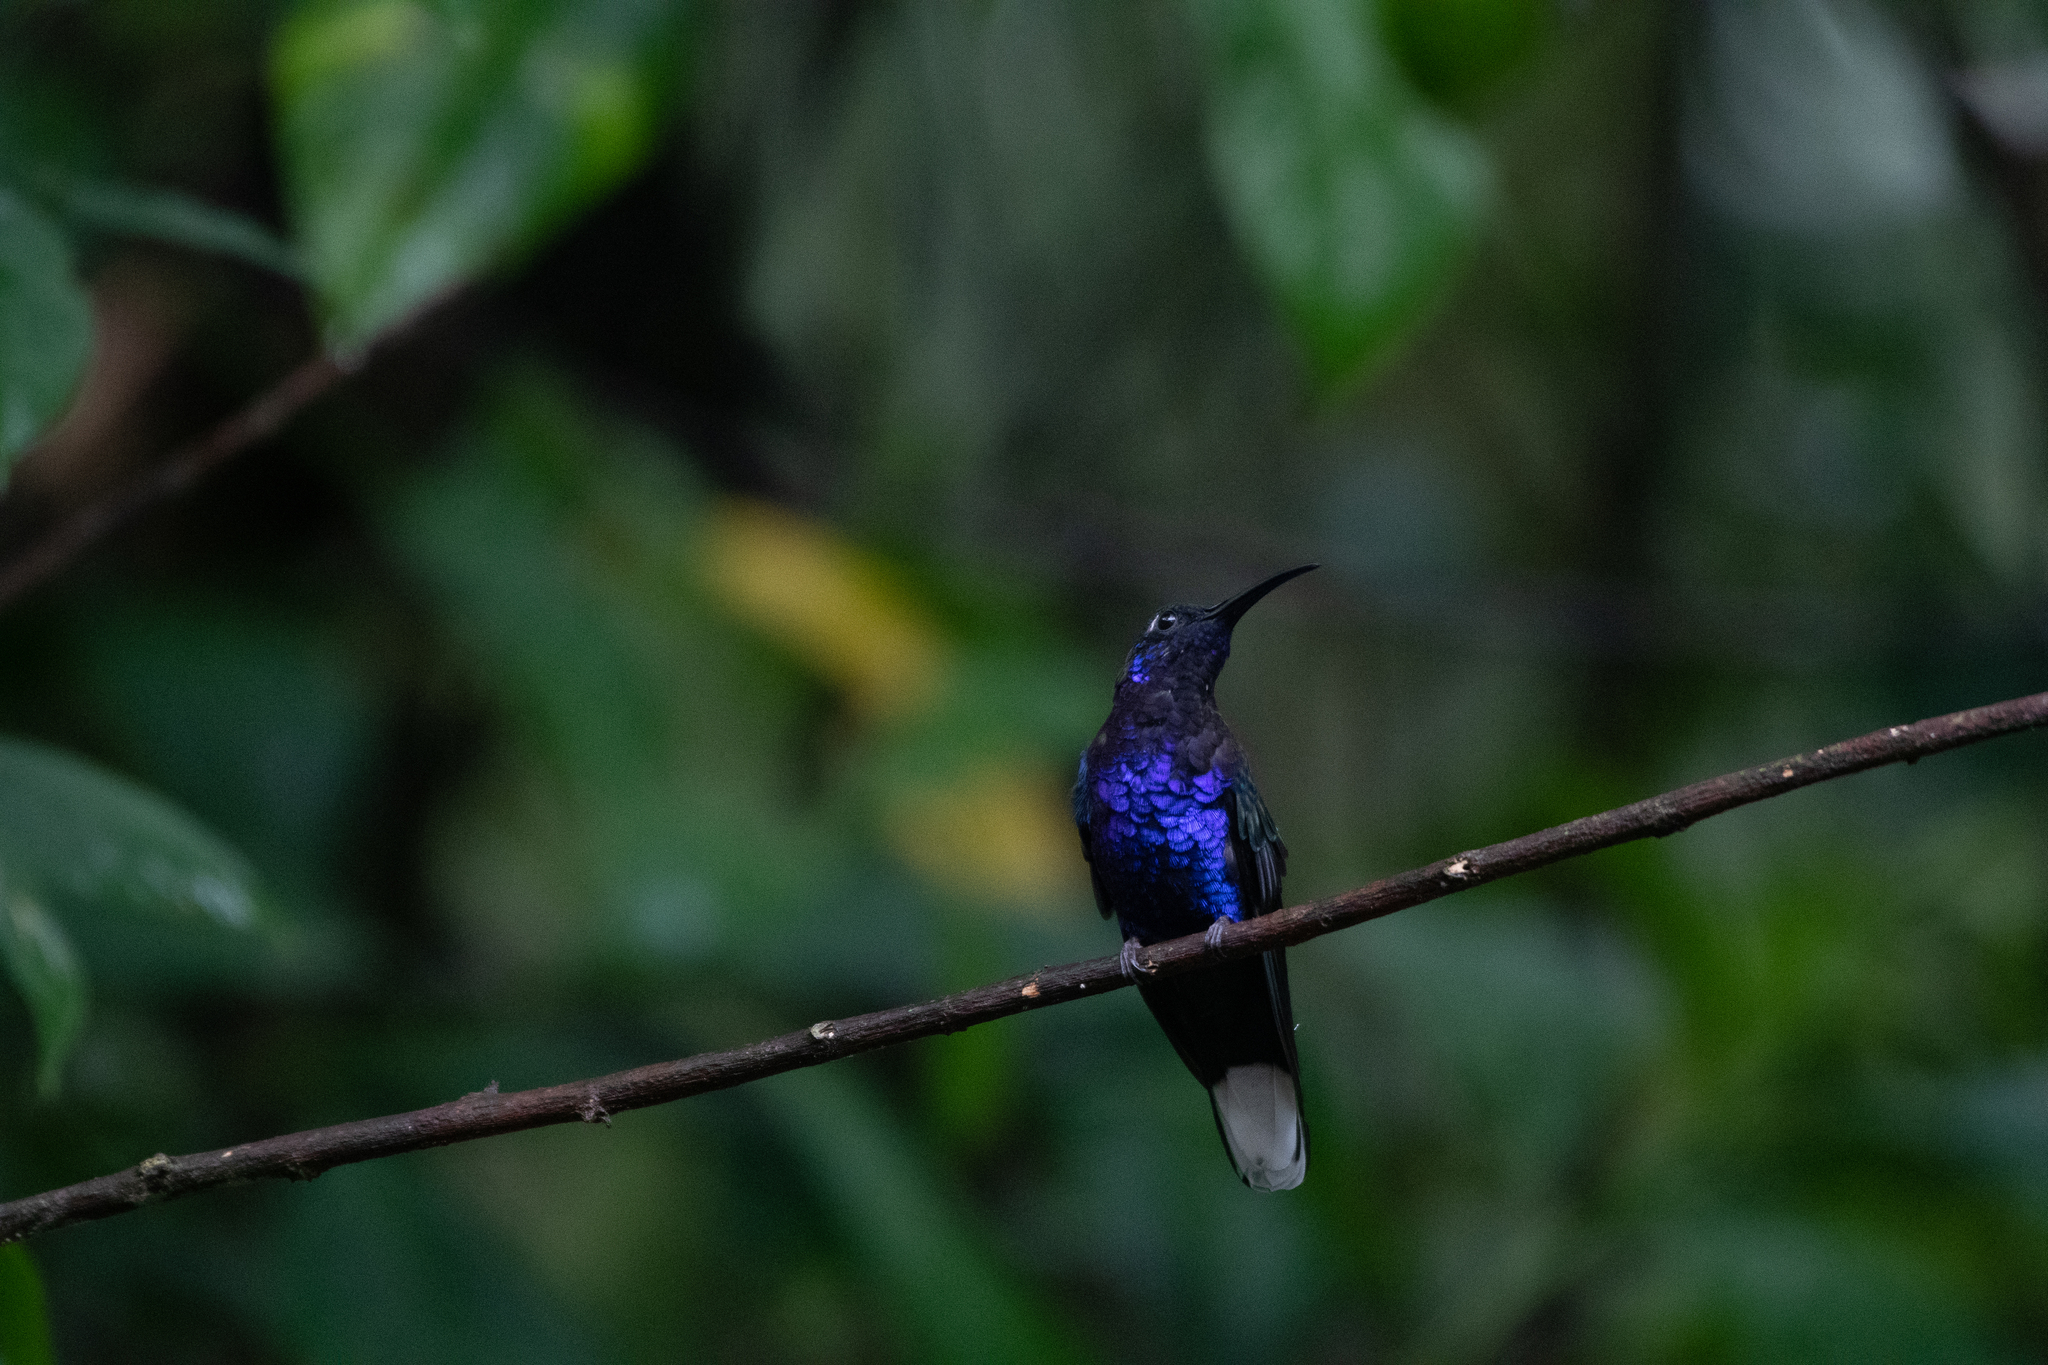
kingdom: Animalia
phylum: Chordata
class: Aves
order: Apodiformes
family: Trochilidae
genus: Campylopterus
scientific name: Campylopterus hemileucurus
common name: Violet sabrewing
